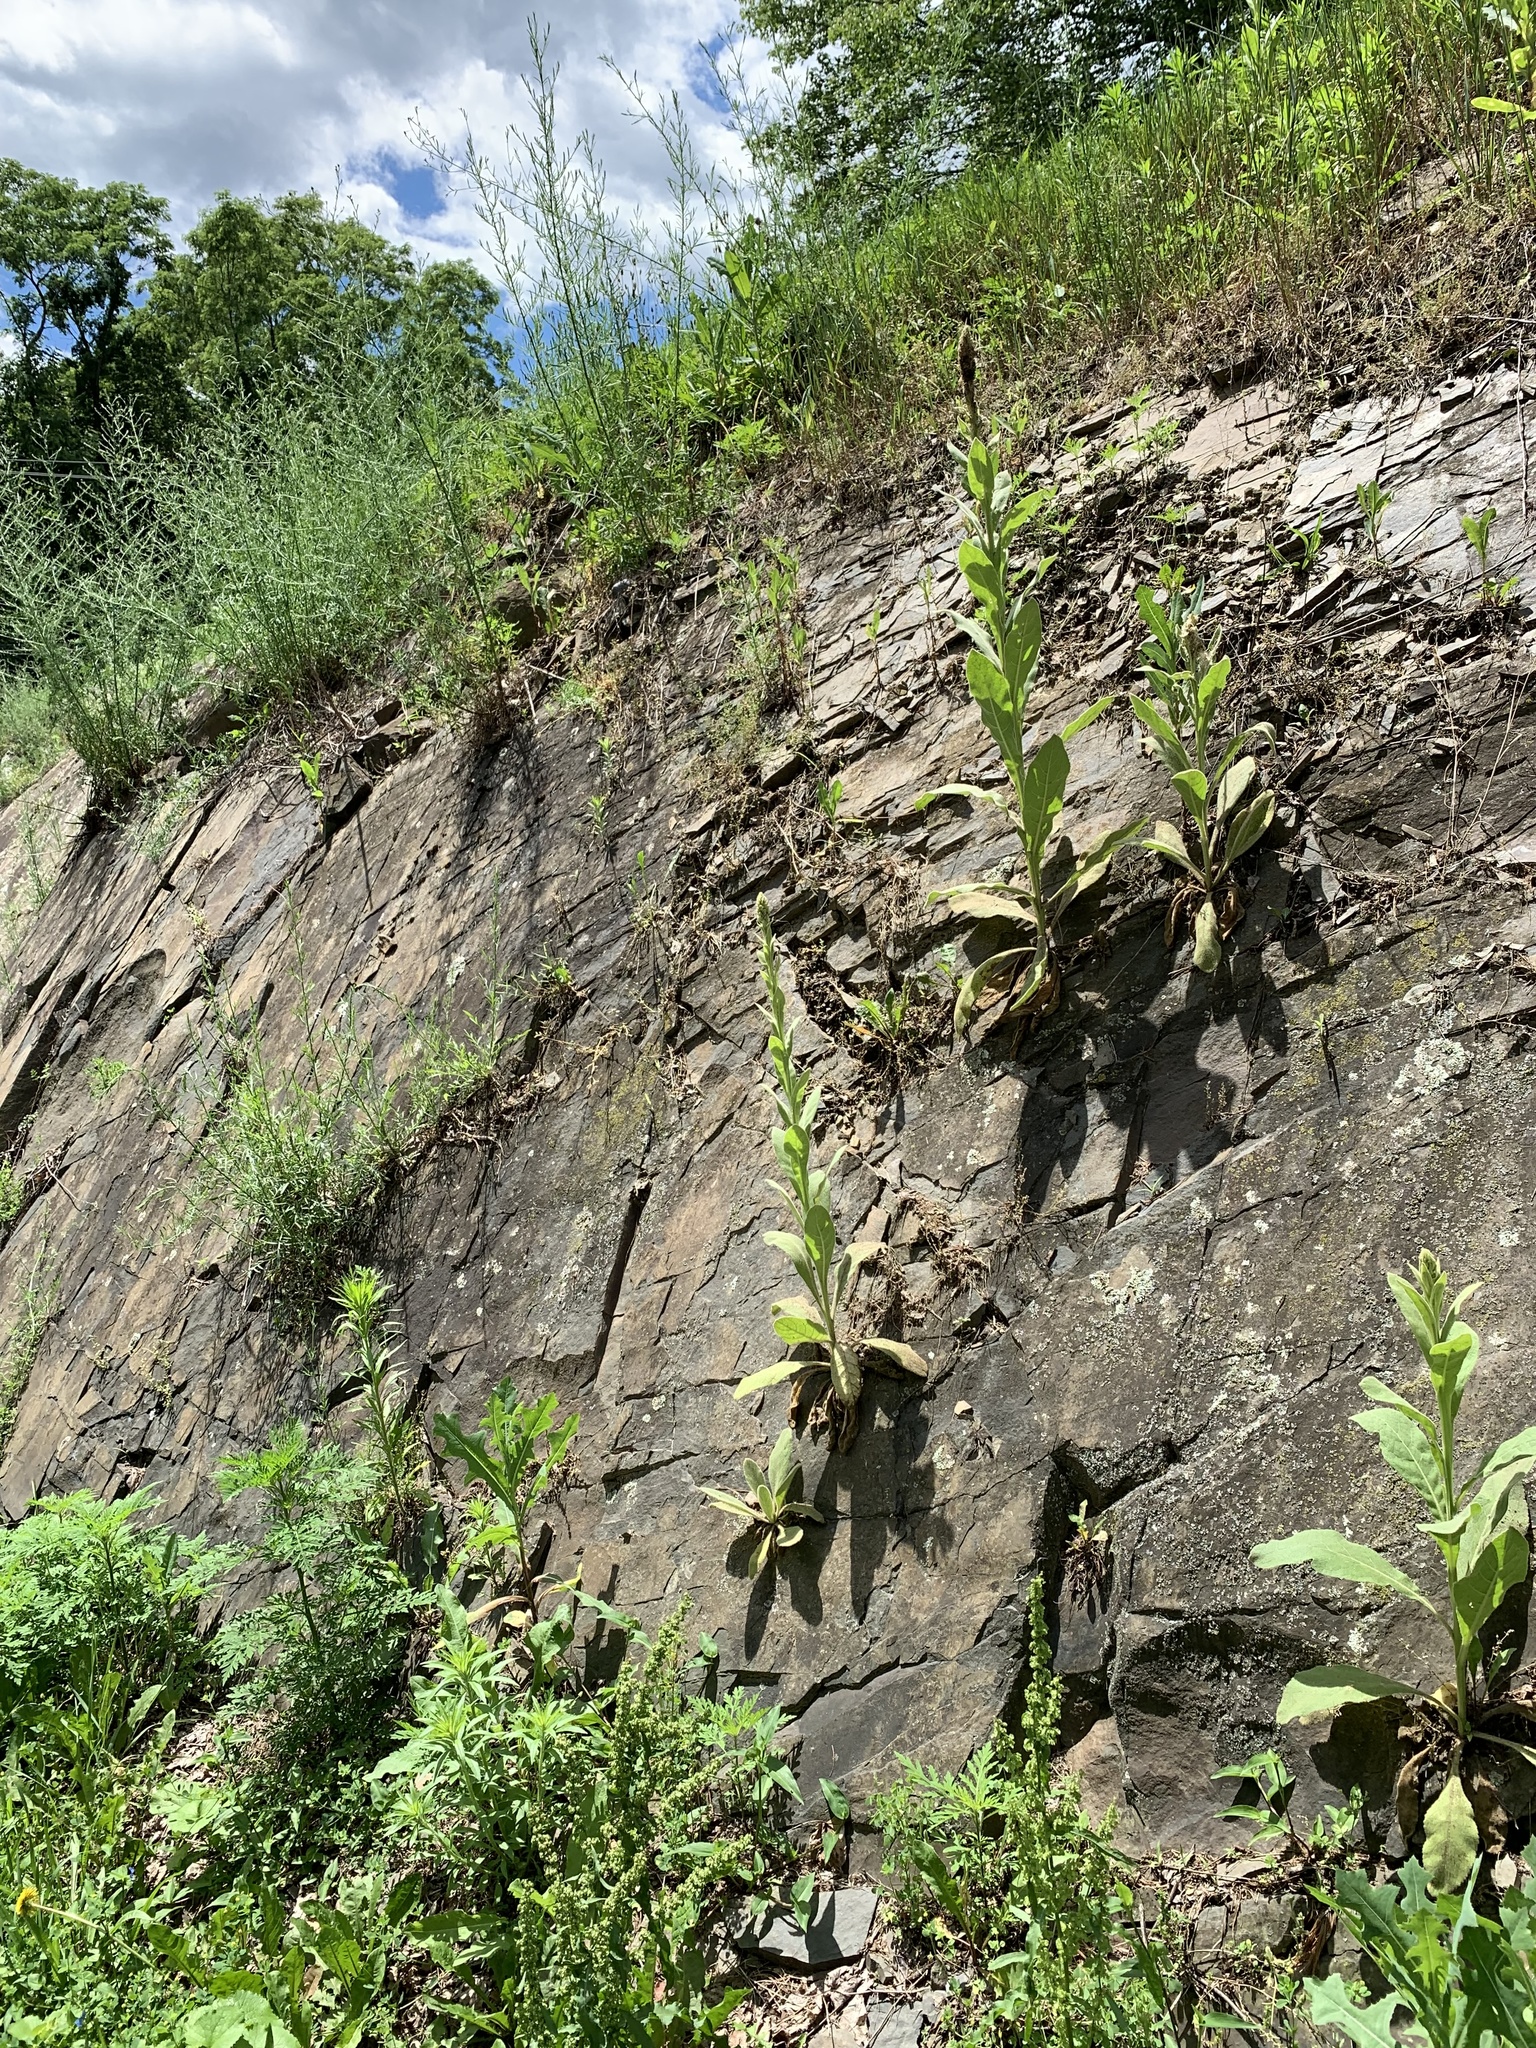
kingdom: Plantae
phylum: Tracheophyta
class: Magnoliopsida
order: Lamiales
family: Scrophulariaceae
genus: Verbascum
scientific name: Verbascum thapsus
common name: Common mullein
